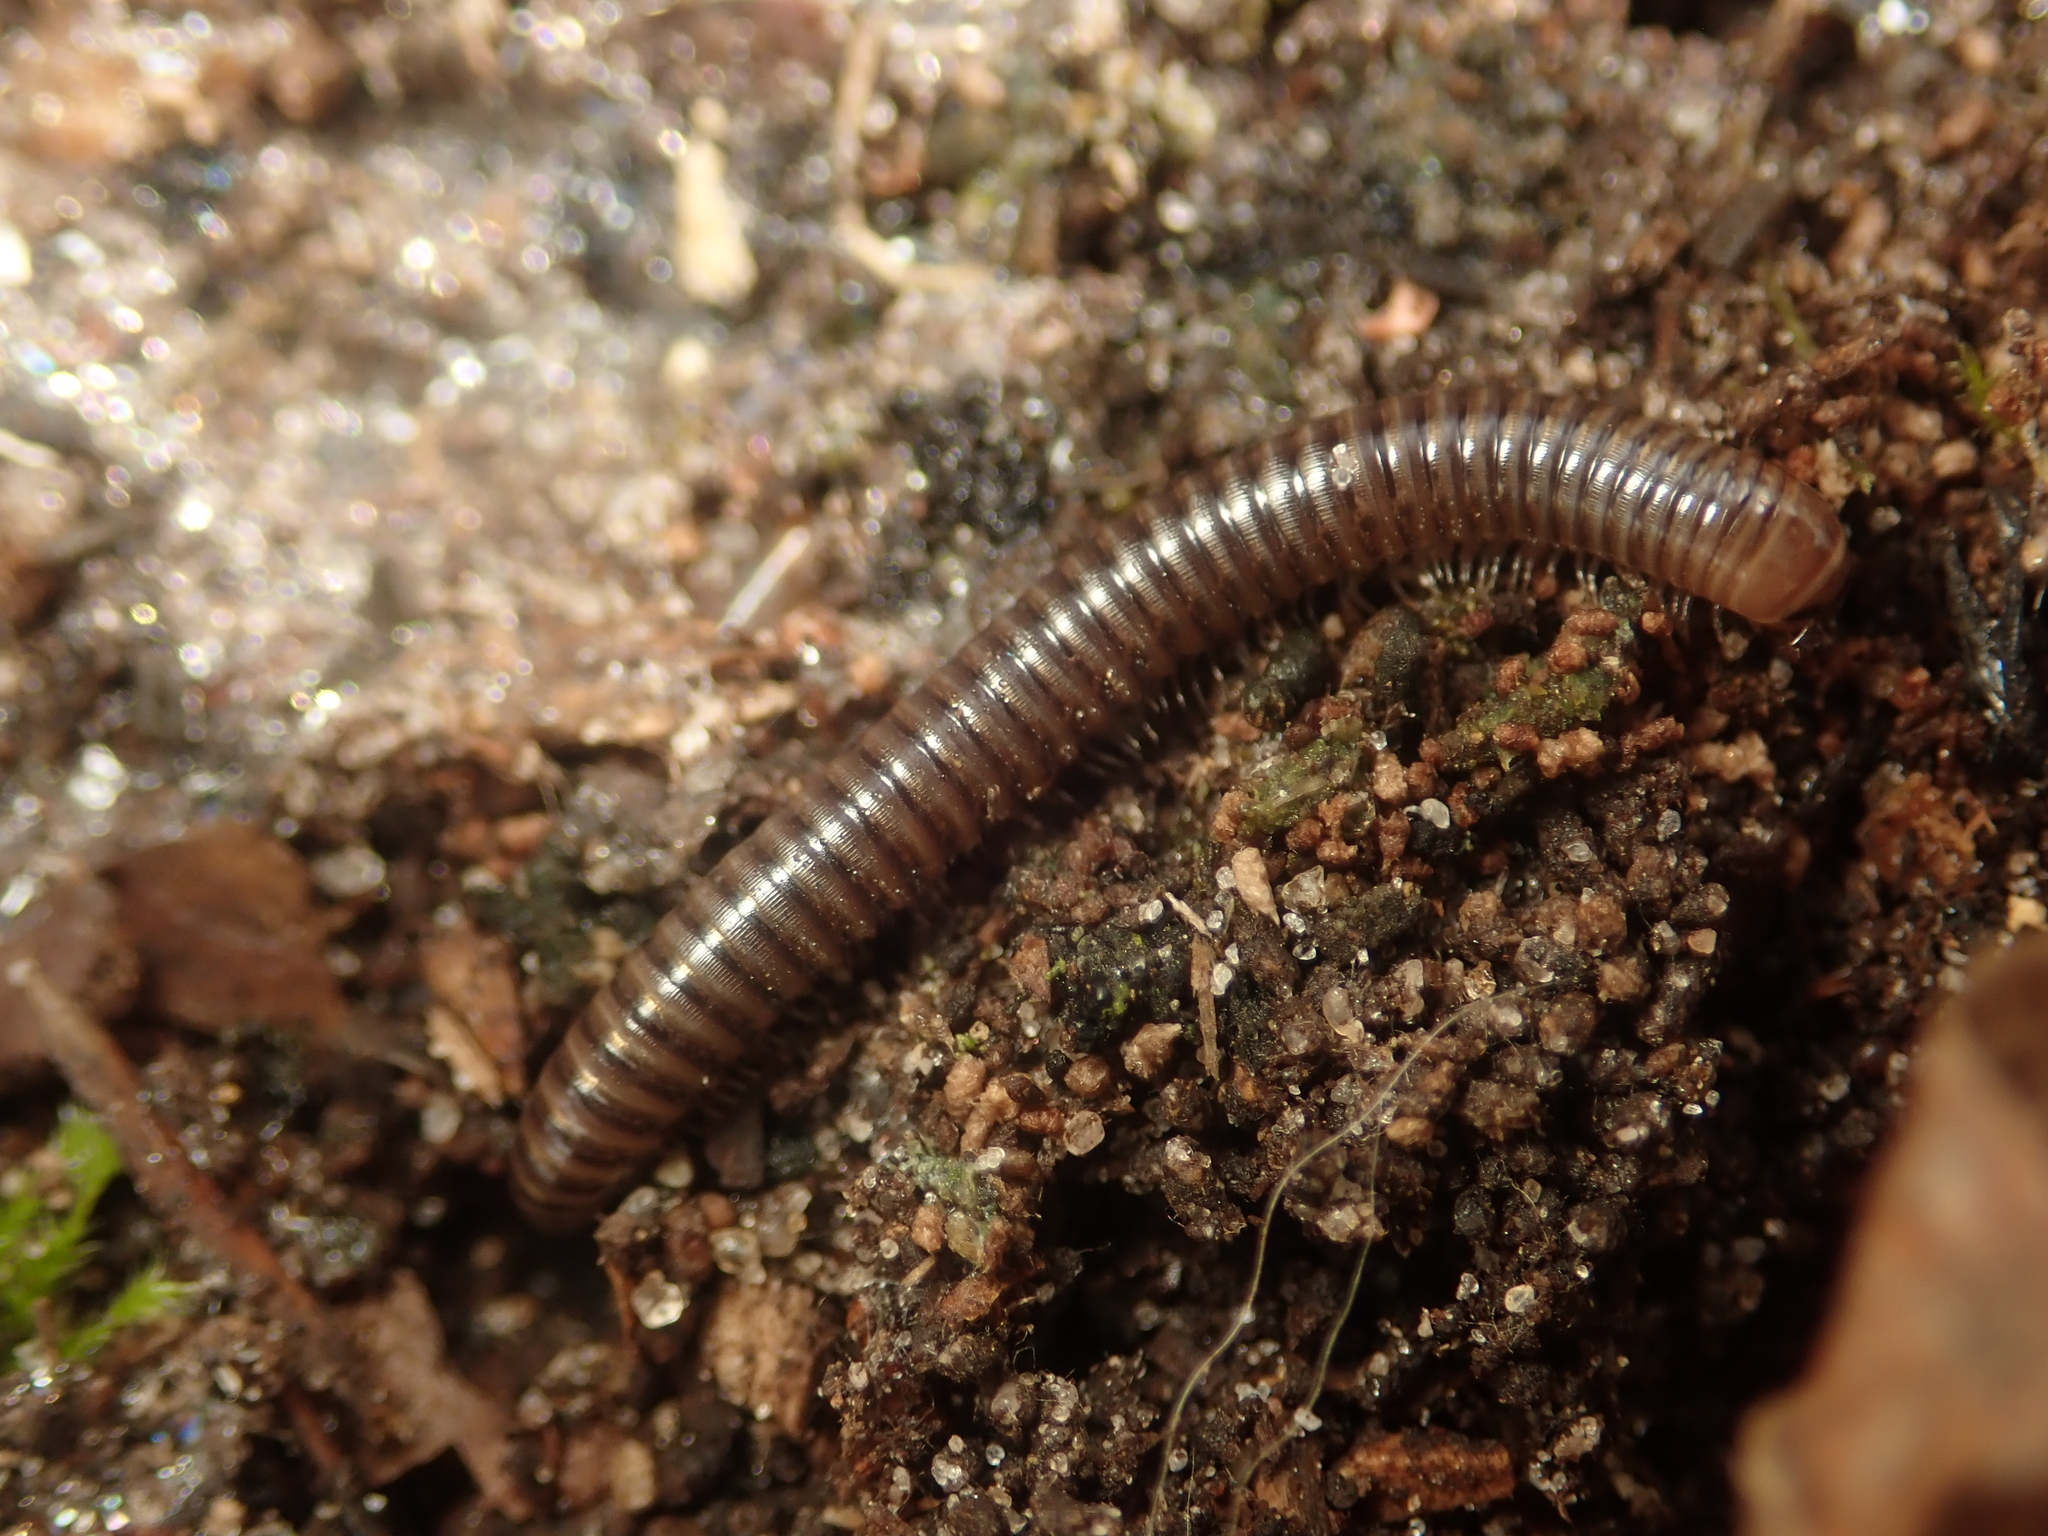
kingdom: Animalia
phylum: Arthropoda
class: Diplopoda
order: Julida
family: Julidae
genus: Cylindroiulus
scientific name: Cylindroiulus caeruleocinctus
